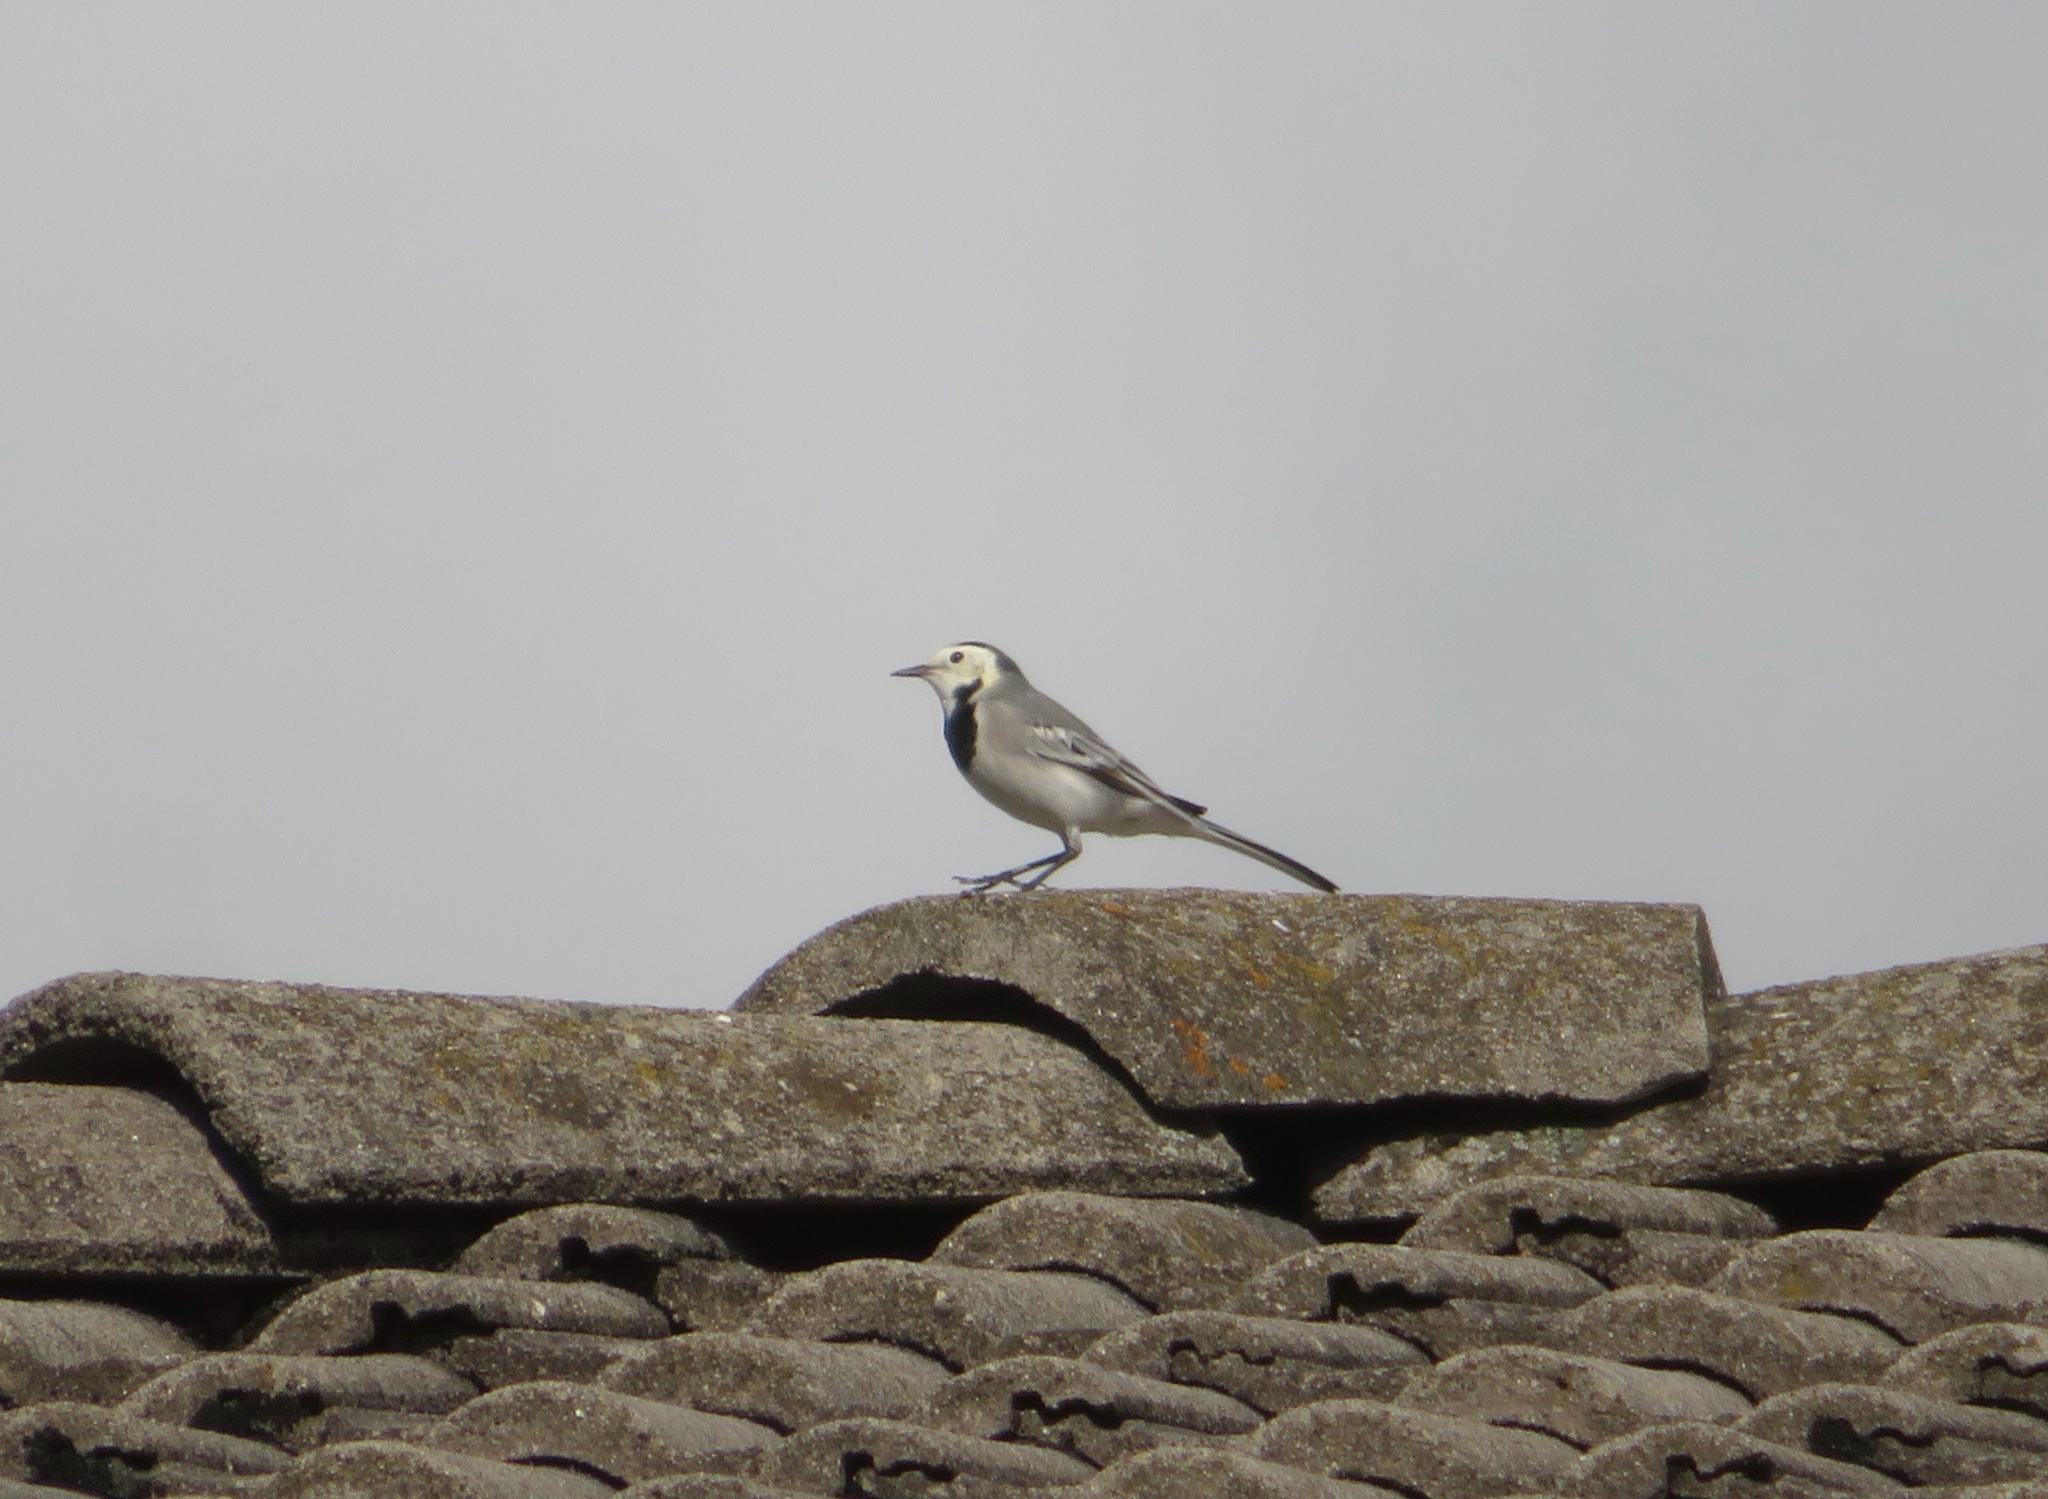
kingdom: Animalia
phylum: Chordata
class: Aves
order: Passeriformes
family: Motacillidae
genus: Motacilla
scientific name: Motacilla alba
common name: White wagtail
